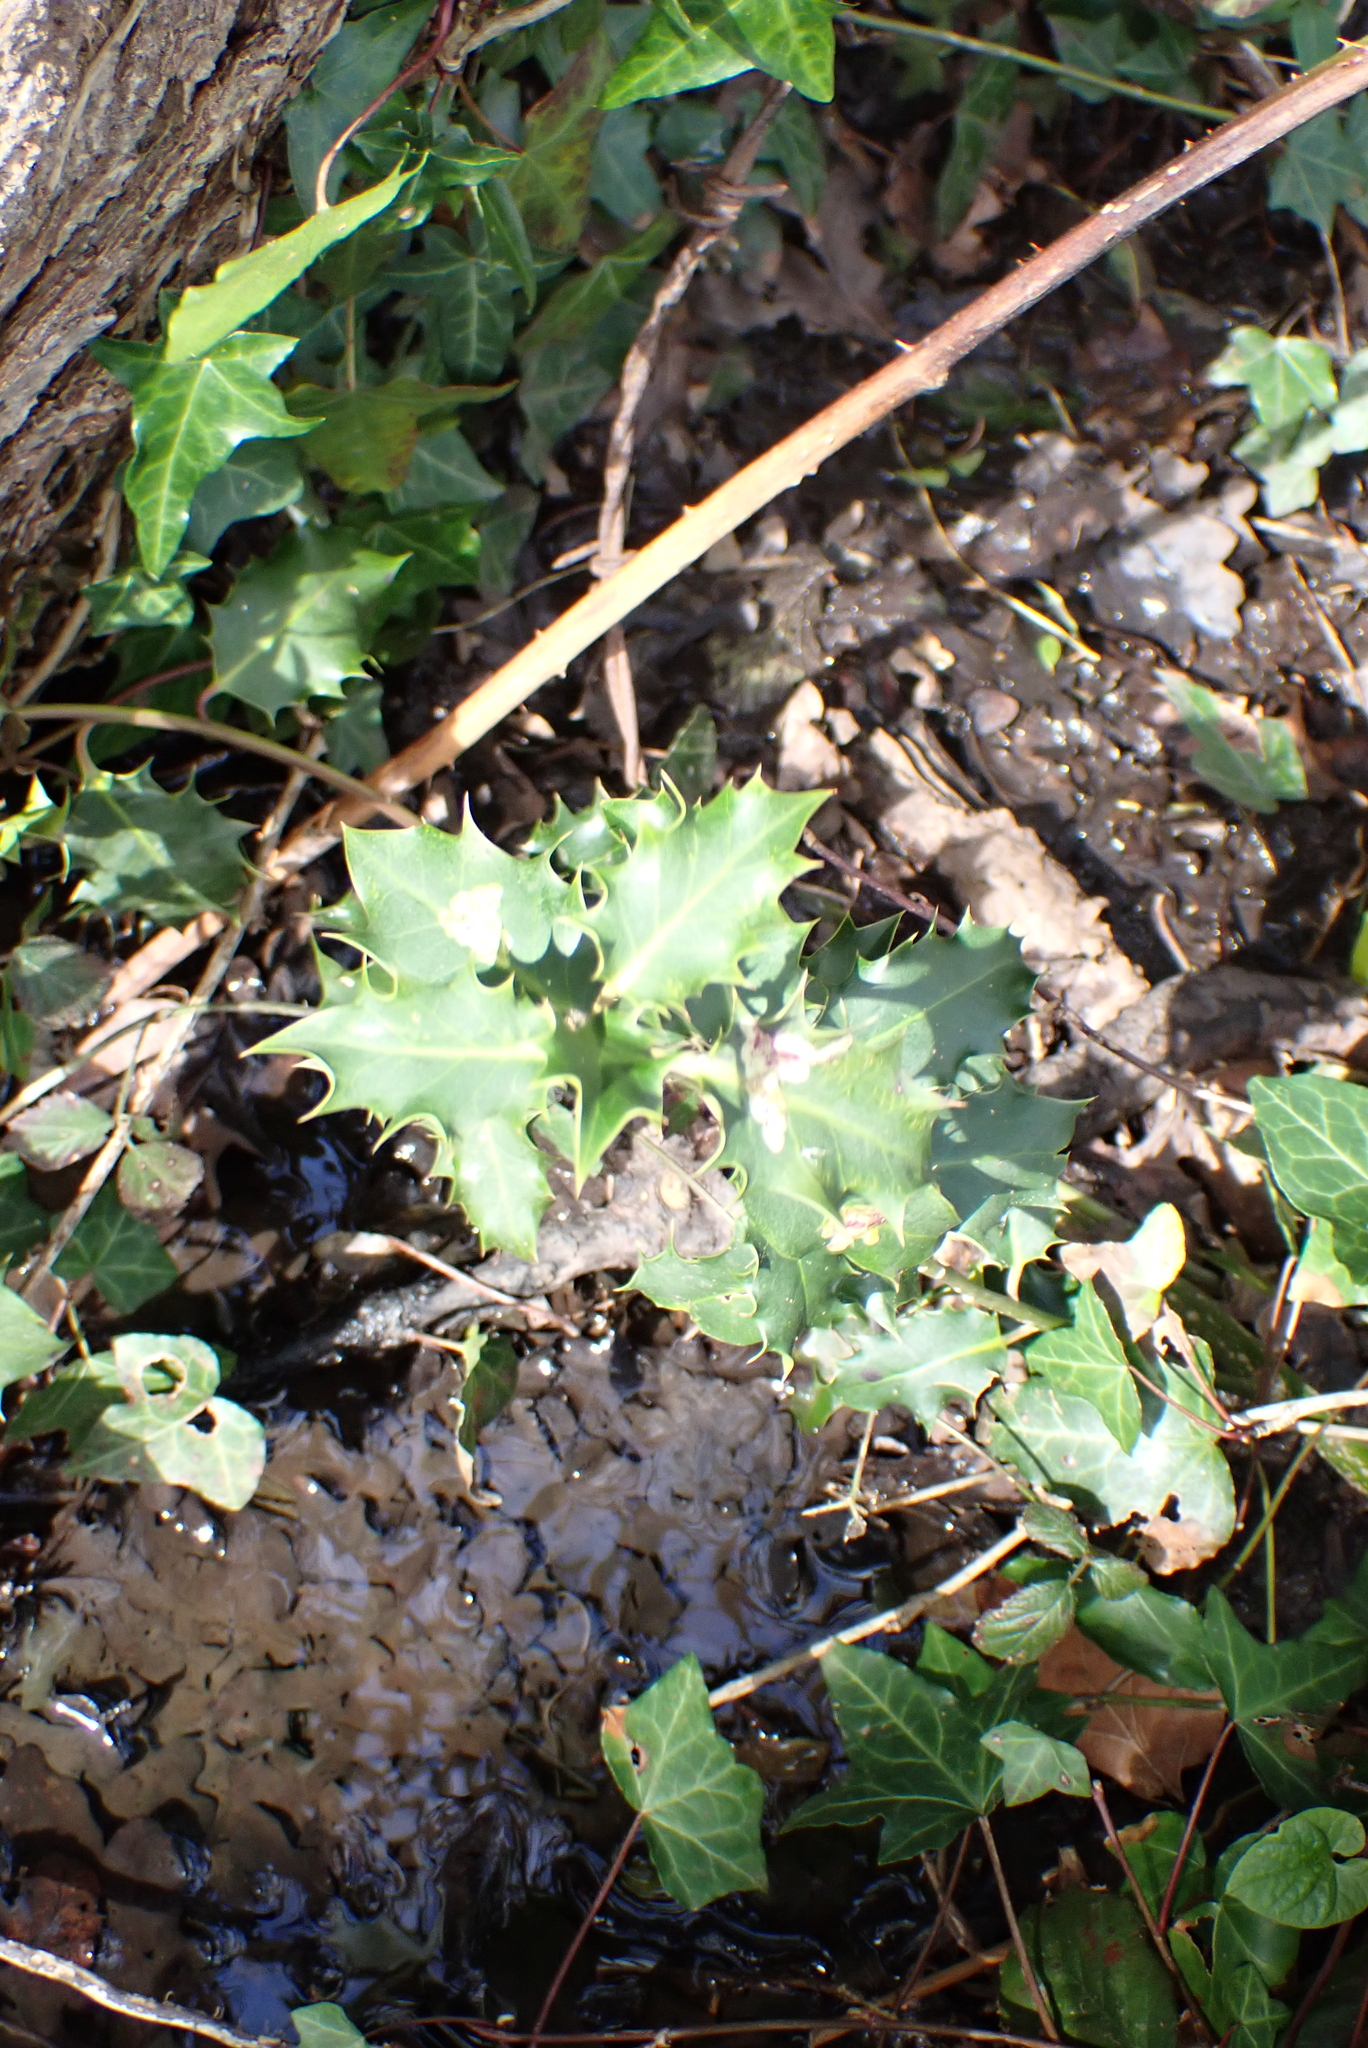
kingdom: Plantae
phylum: Tracheophyta
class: Magnoliopsida
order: Aquifoliales
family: Aquifoliaceae
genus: Ilex
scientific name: Ilex aquifolium
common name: English holly
